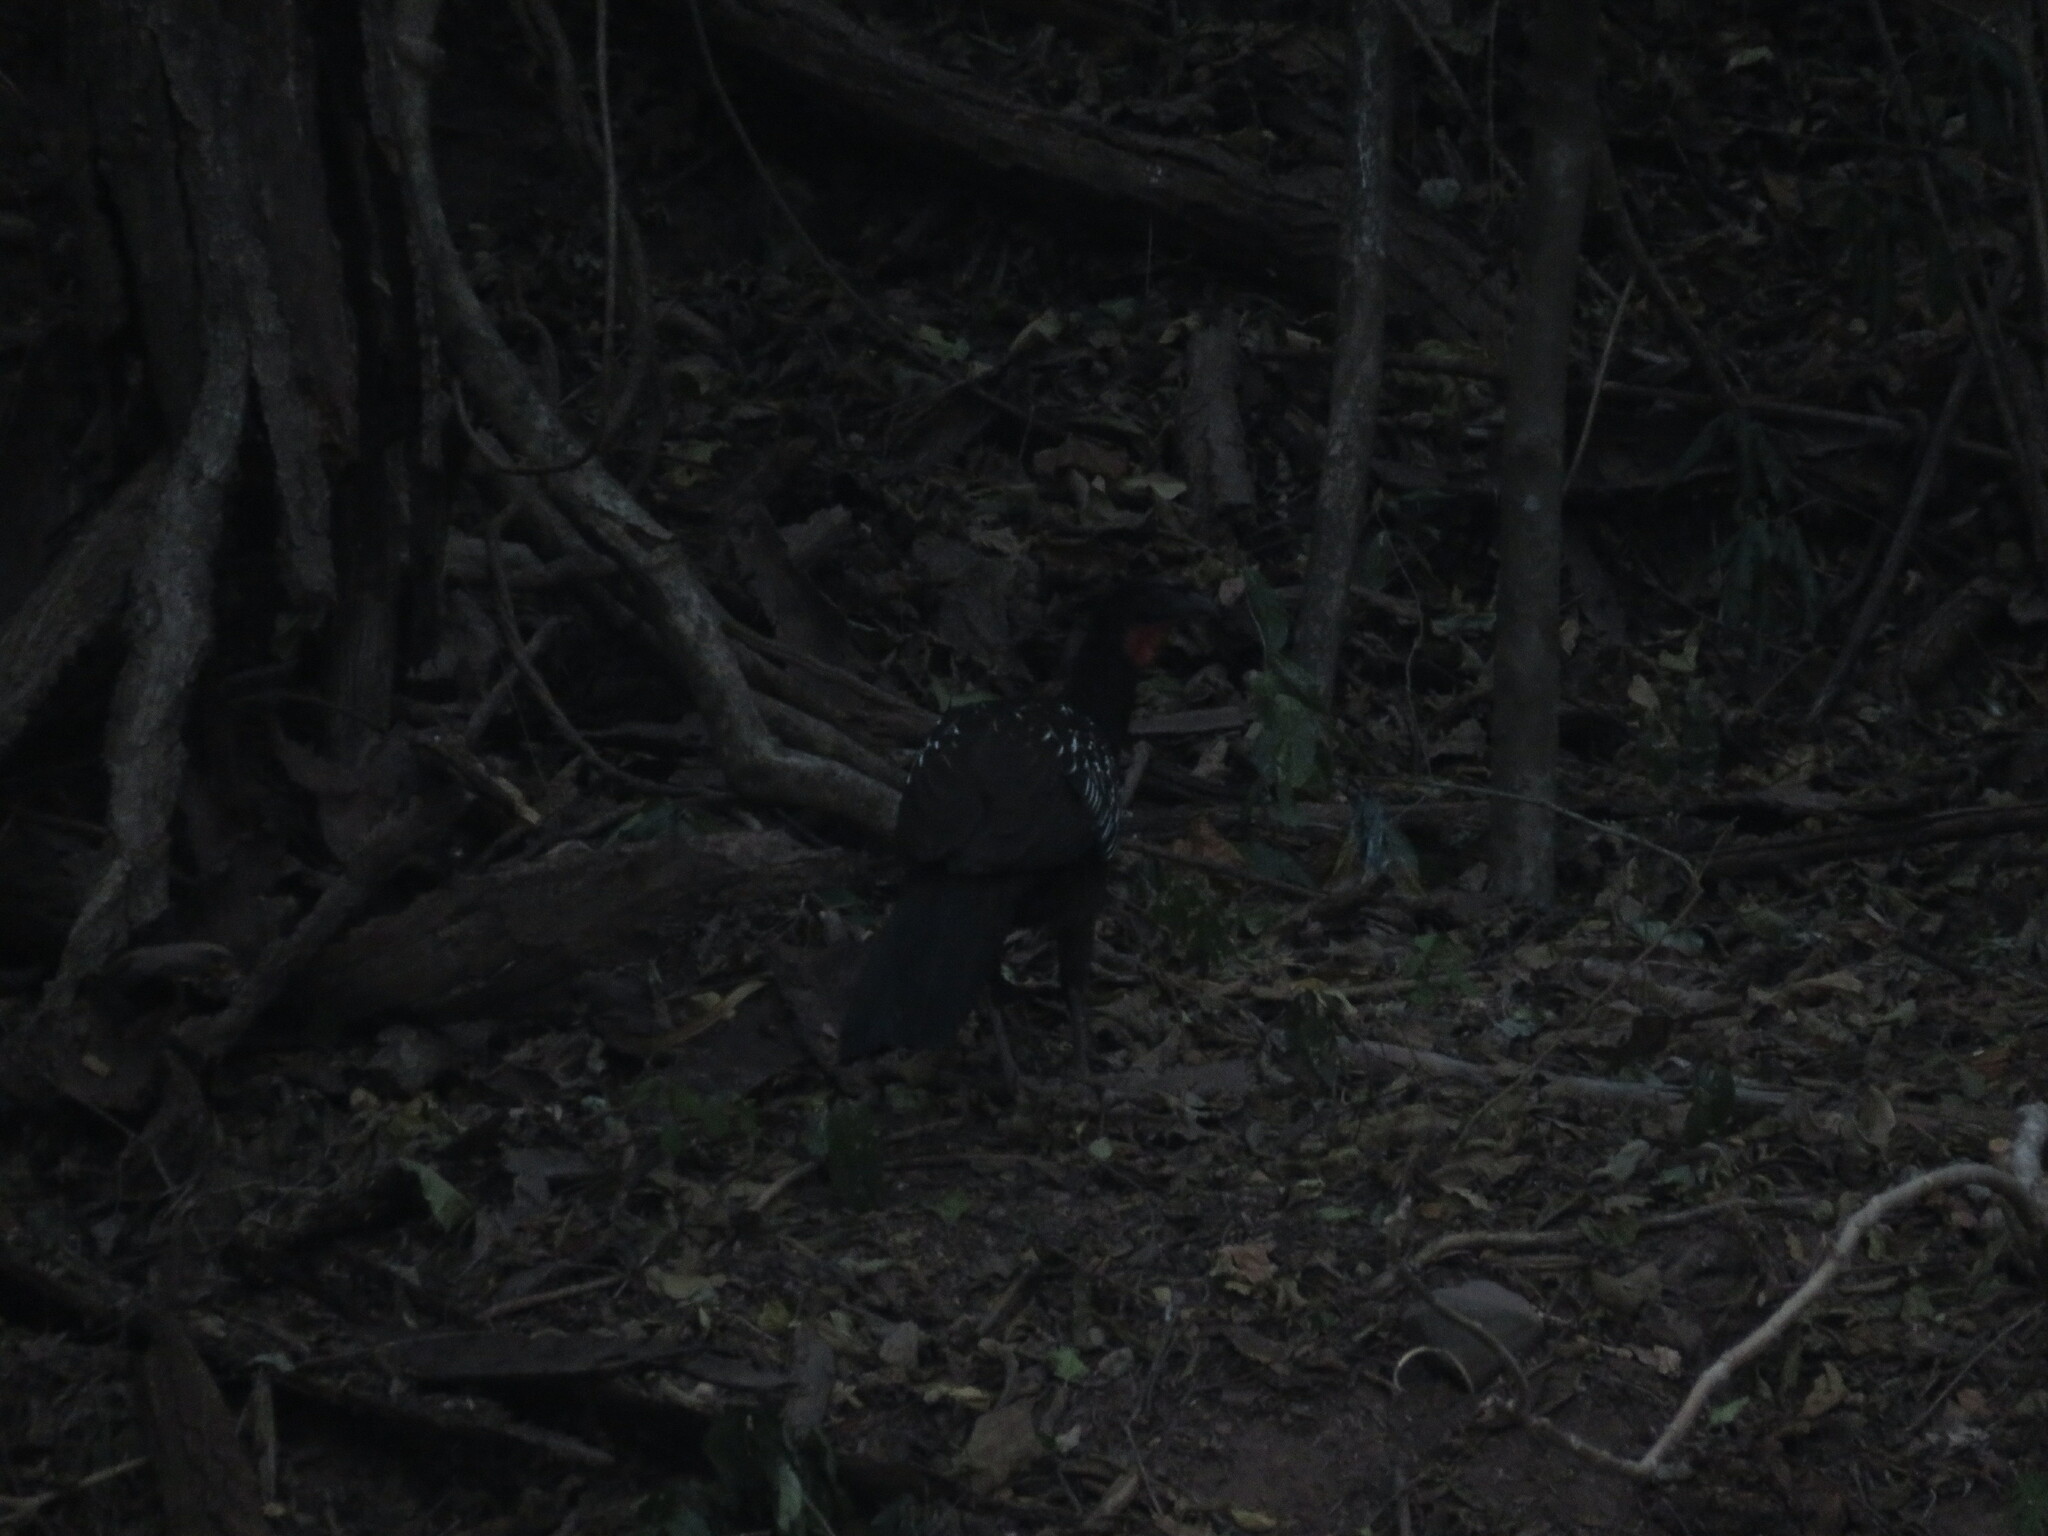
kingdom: Animalia
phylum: Chordata
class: Aves
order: Galliformes
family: Cracidae
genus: Penelope
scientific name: Penelope bridgesi
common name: Yungas guan
